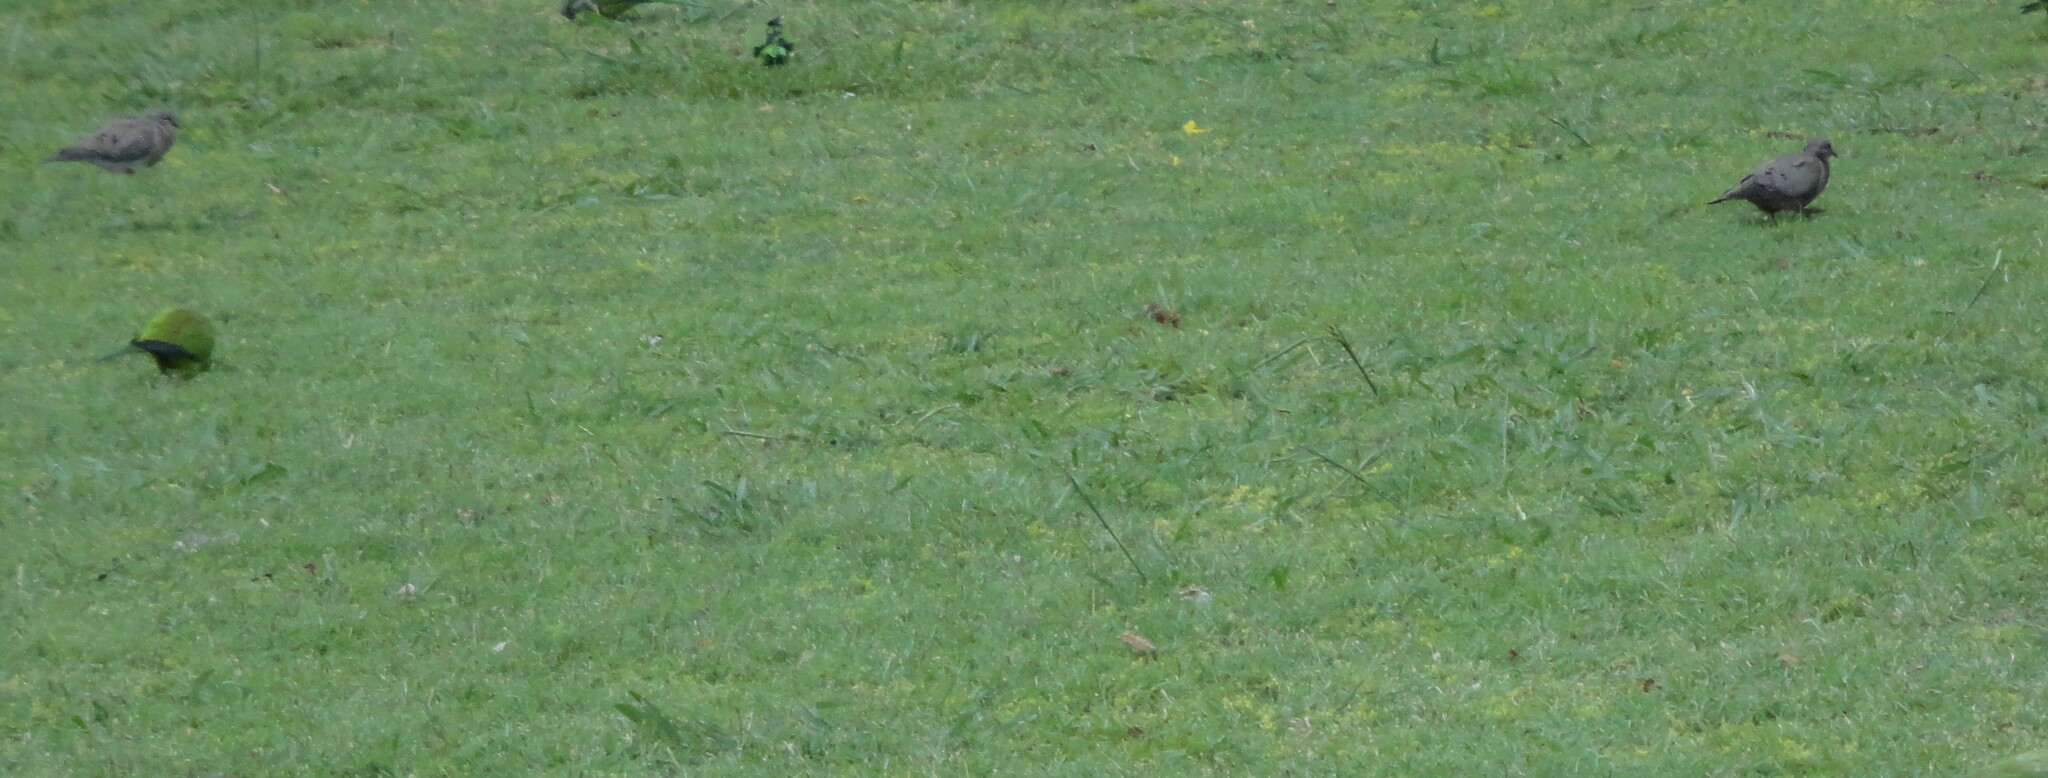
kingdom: Animalia
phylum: Chordata
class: Aves
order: Columbiformes
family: Columbidae
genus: Zenaida
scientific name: Zenaida auriculata
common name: Eared dove
